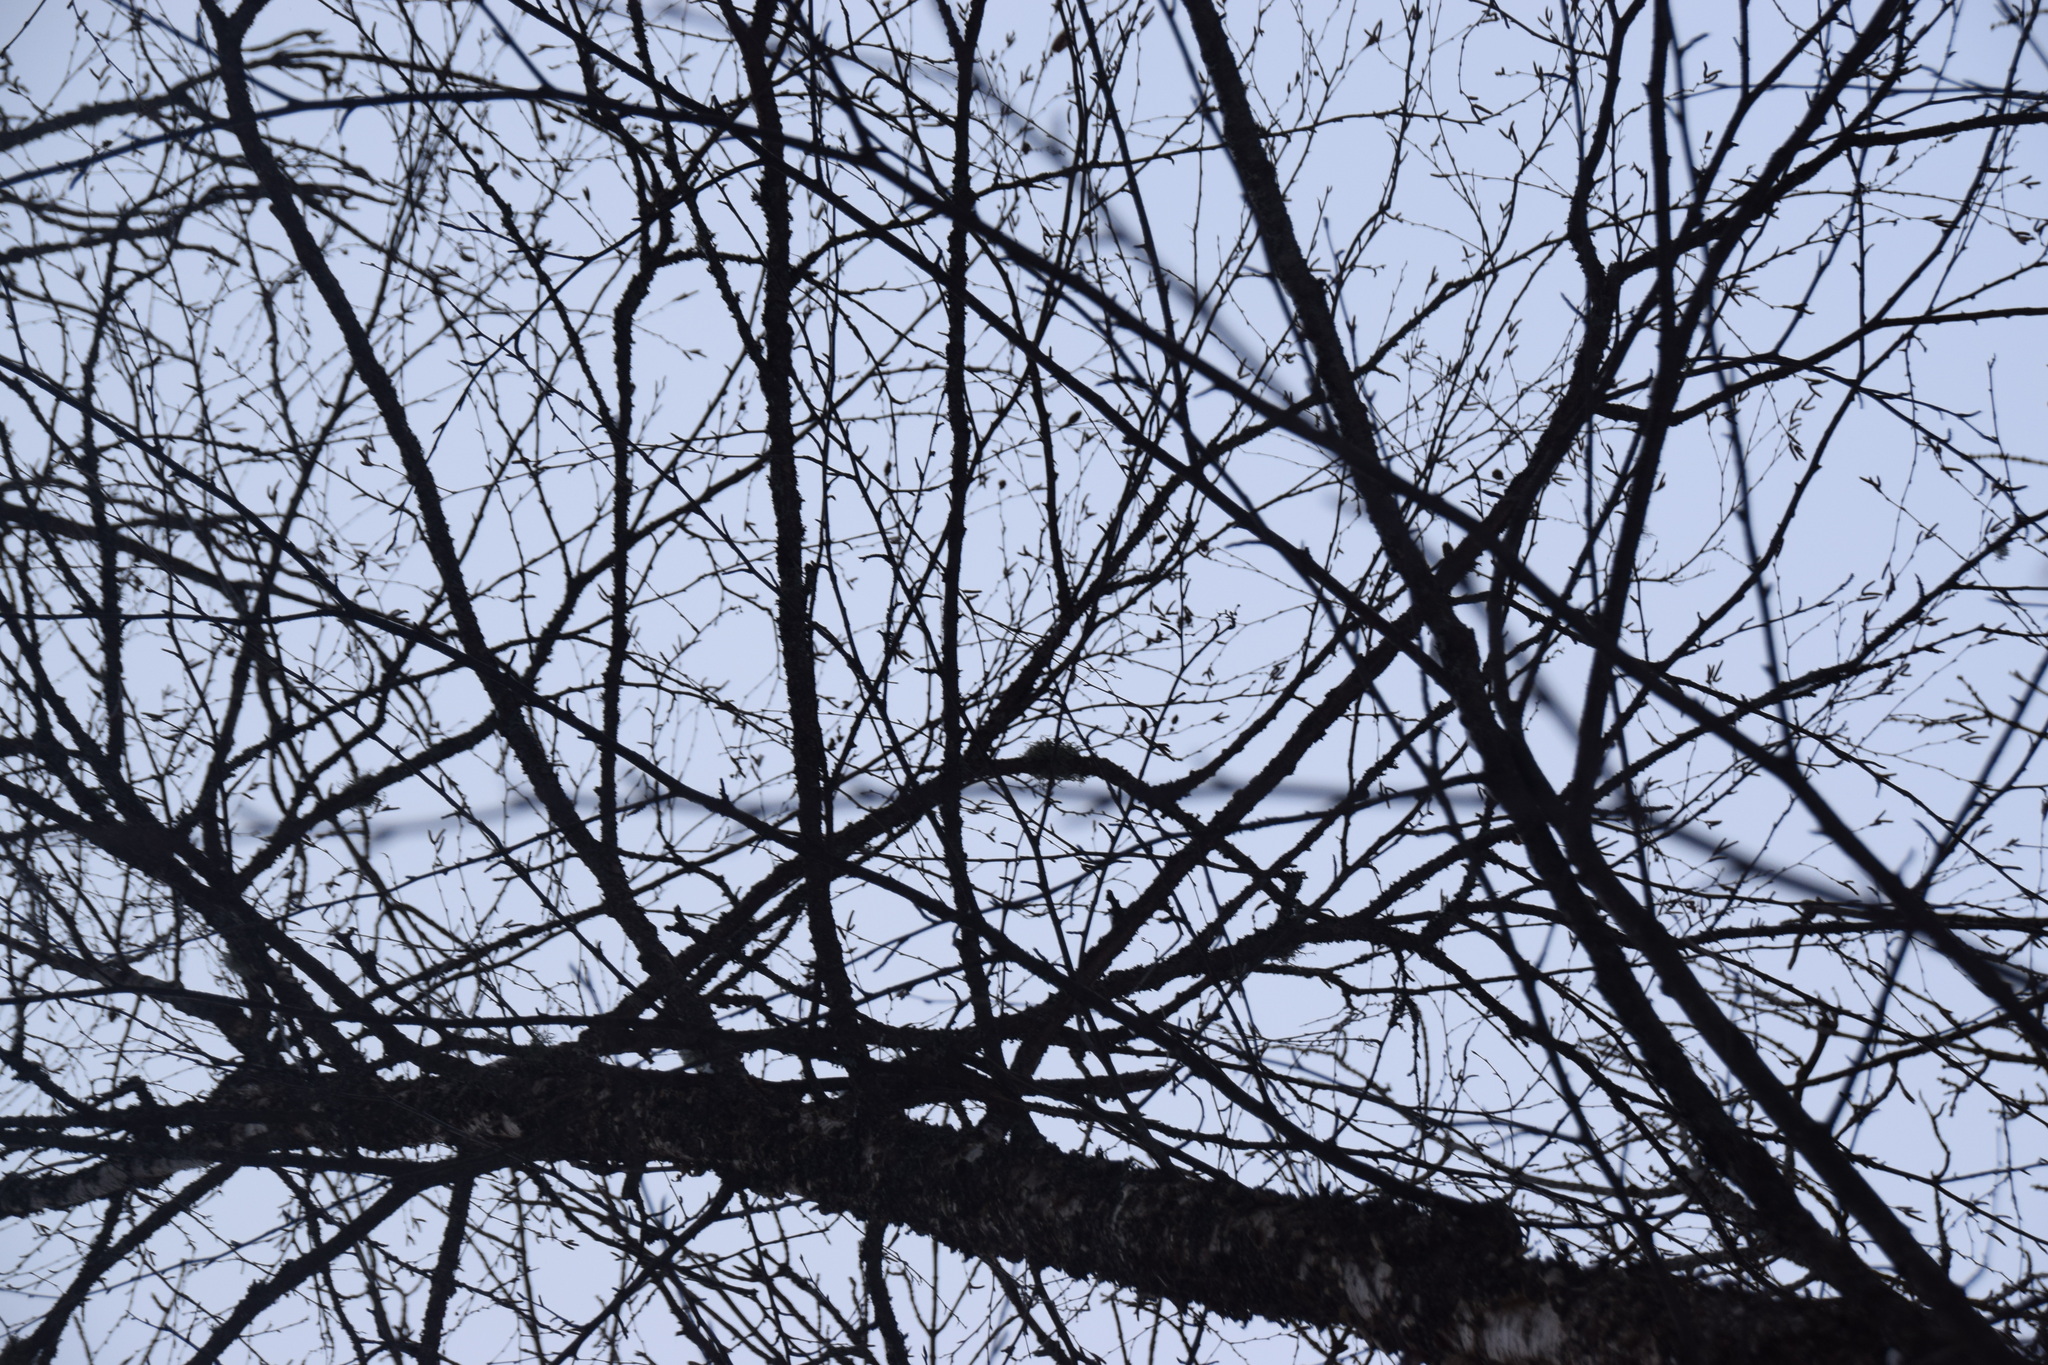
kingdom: Plantae
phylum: Tracheophyta
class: Magnoliopsida
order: Fagales
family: Betulaceae
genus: Betula
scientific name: Betula alleghaniensis
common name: Yellow birch
